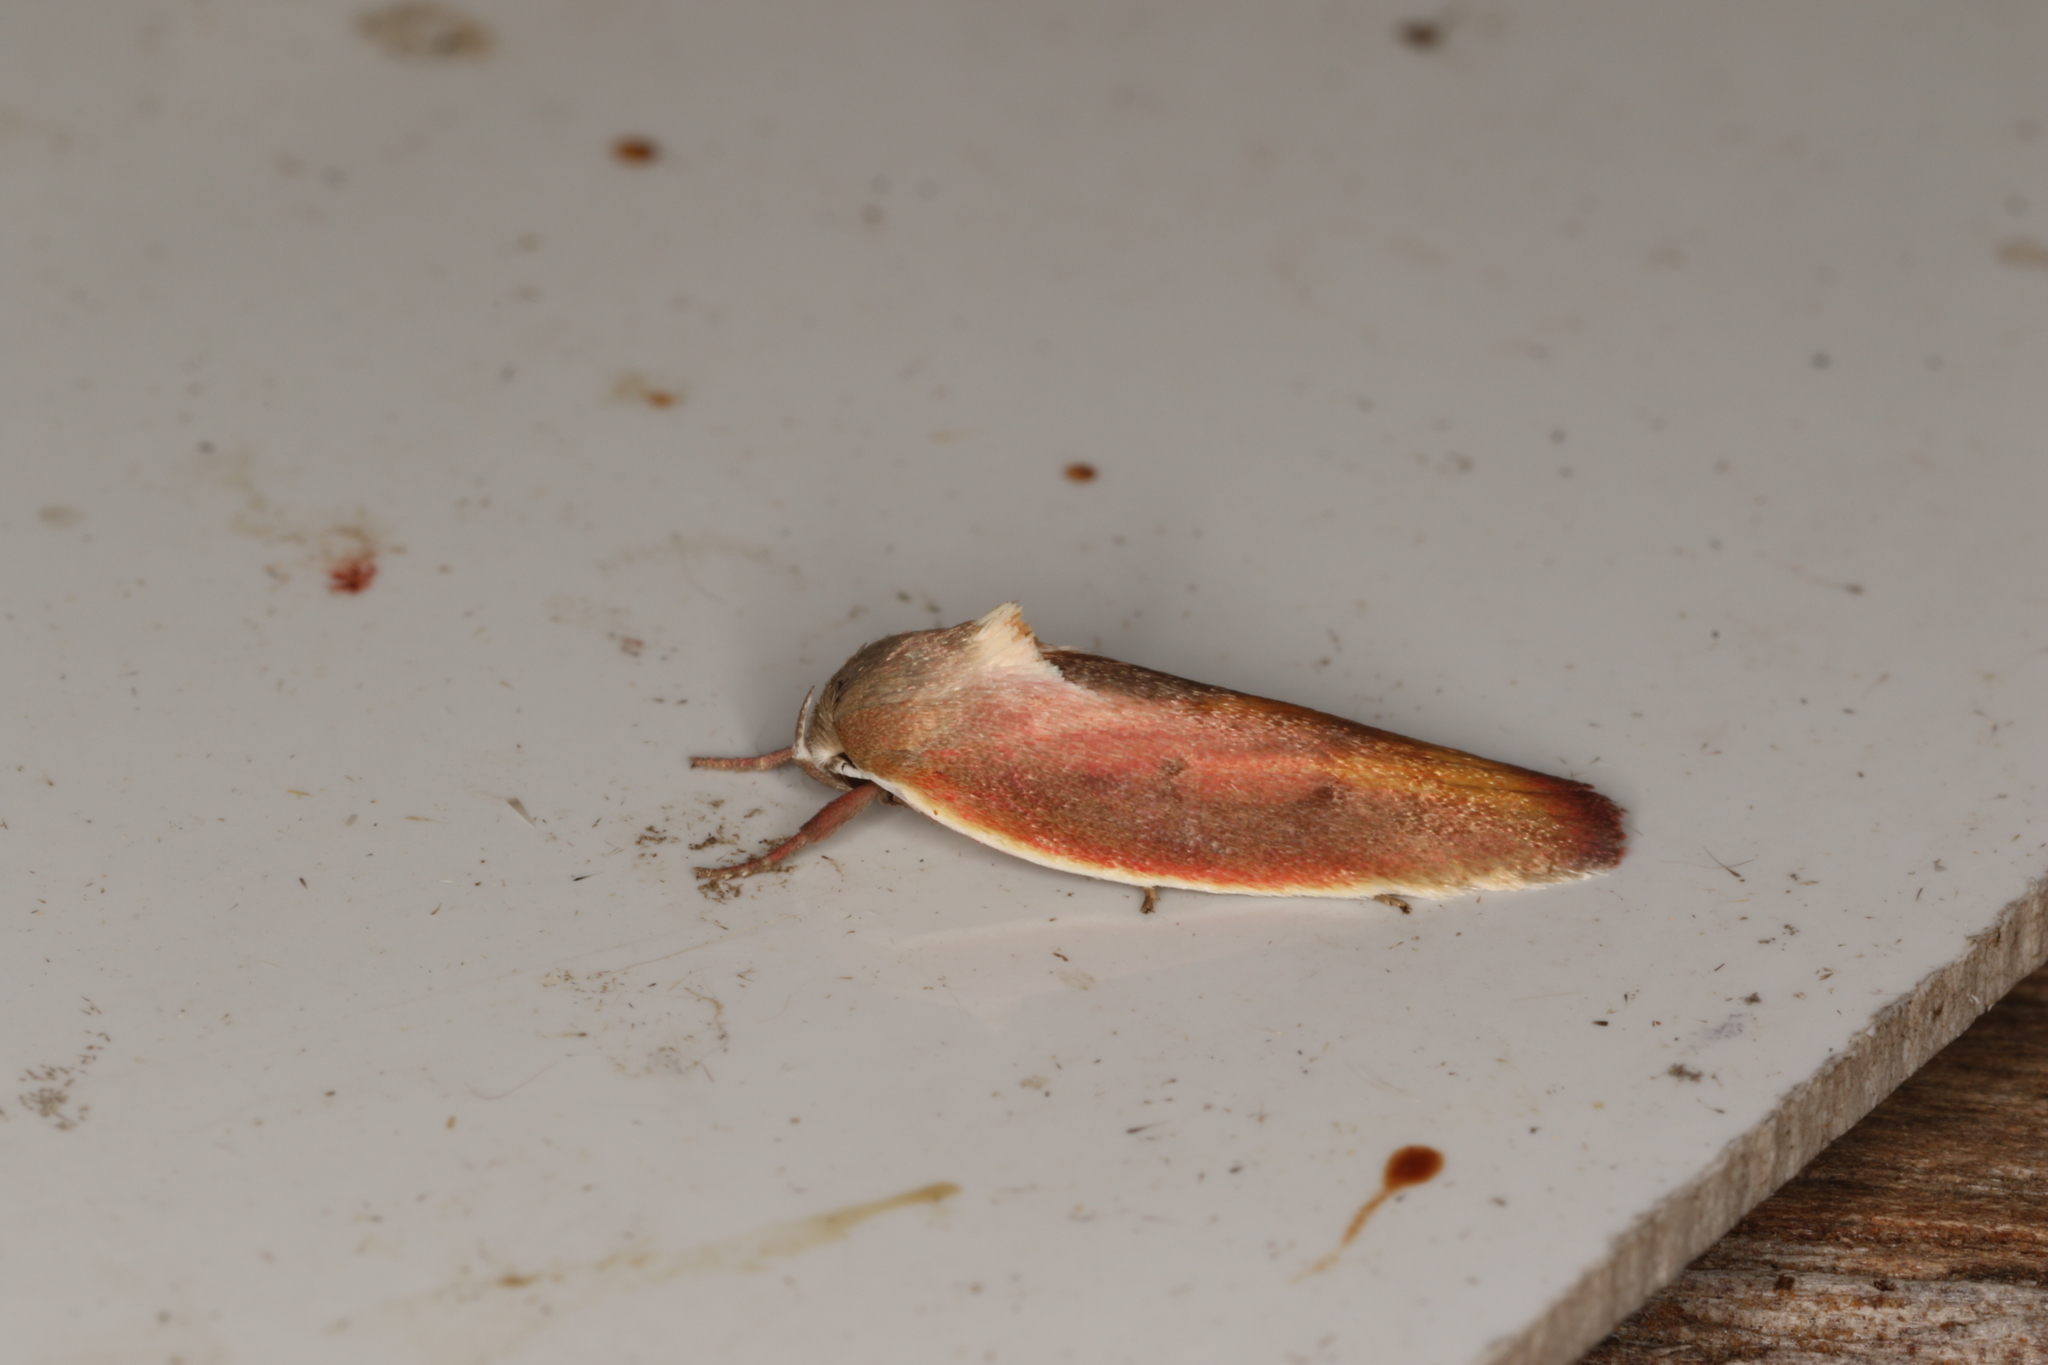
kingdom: Animalia
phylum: Arthropoda
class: Insecta
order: Lepidoptera
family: Oecophoridae
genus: Ptyoptila
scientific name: Ptyoptila matutinella
